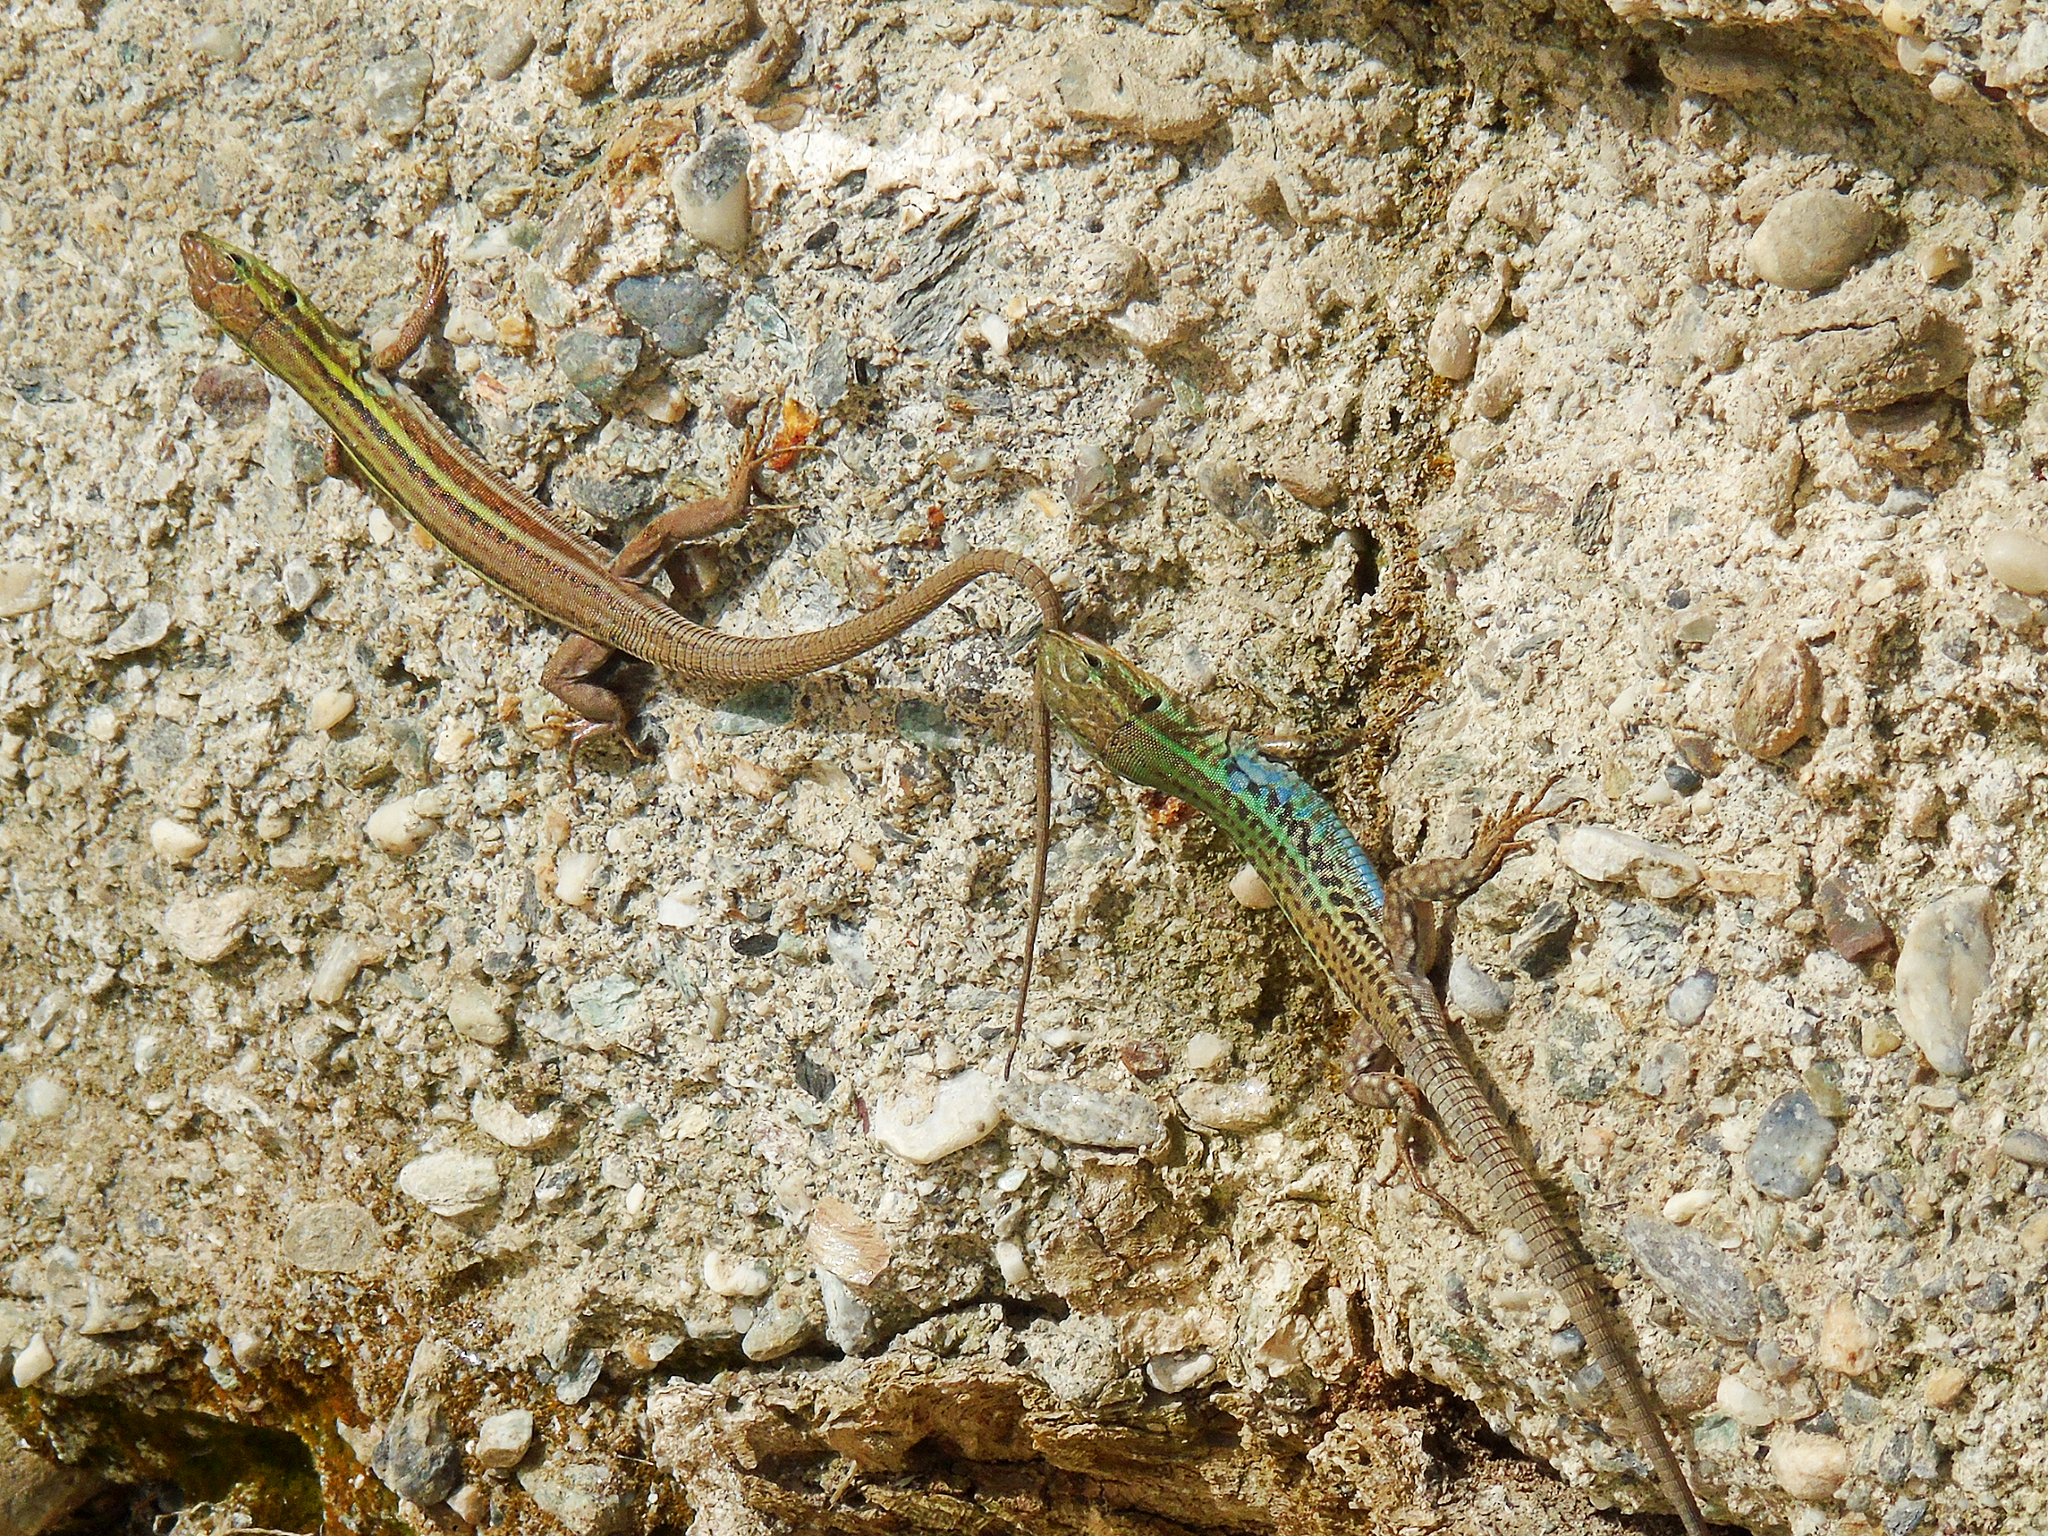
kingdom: Animalia
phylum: Chordata
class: Squamata
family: Lacertidae
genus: Podarcis
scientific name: Podarcis peloponnesiacus
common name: Peloponnese wall lizard
